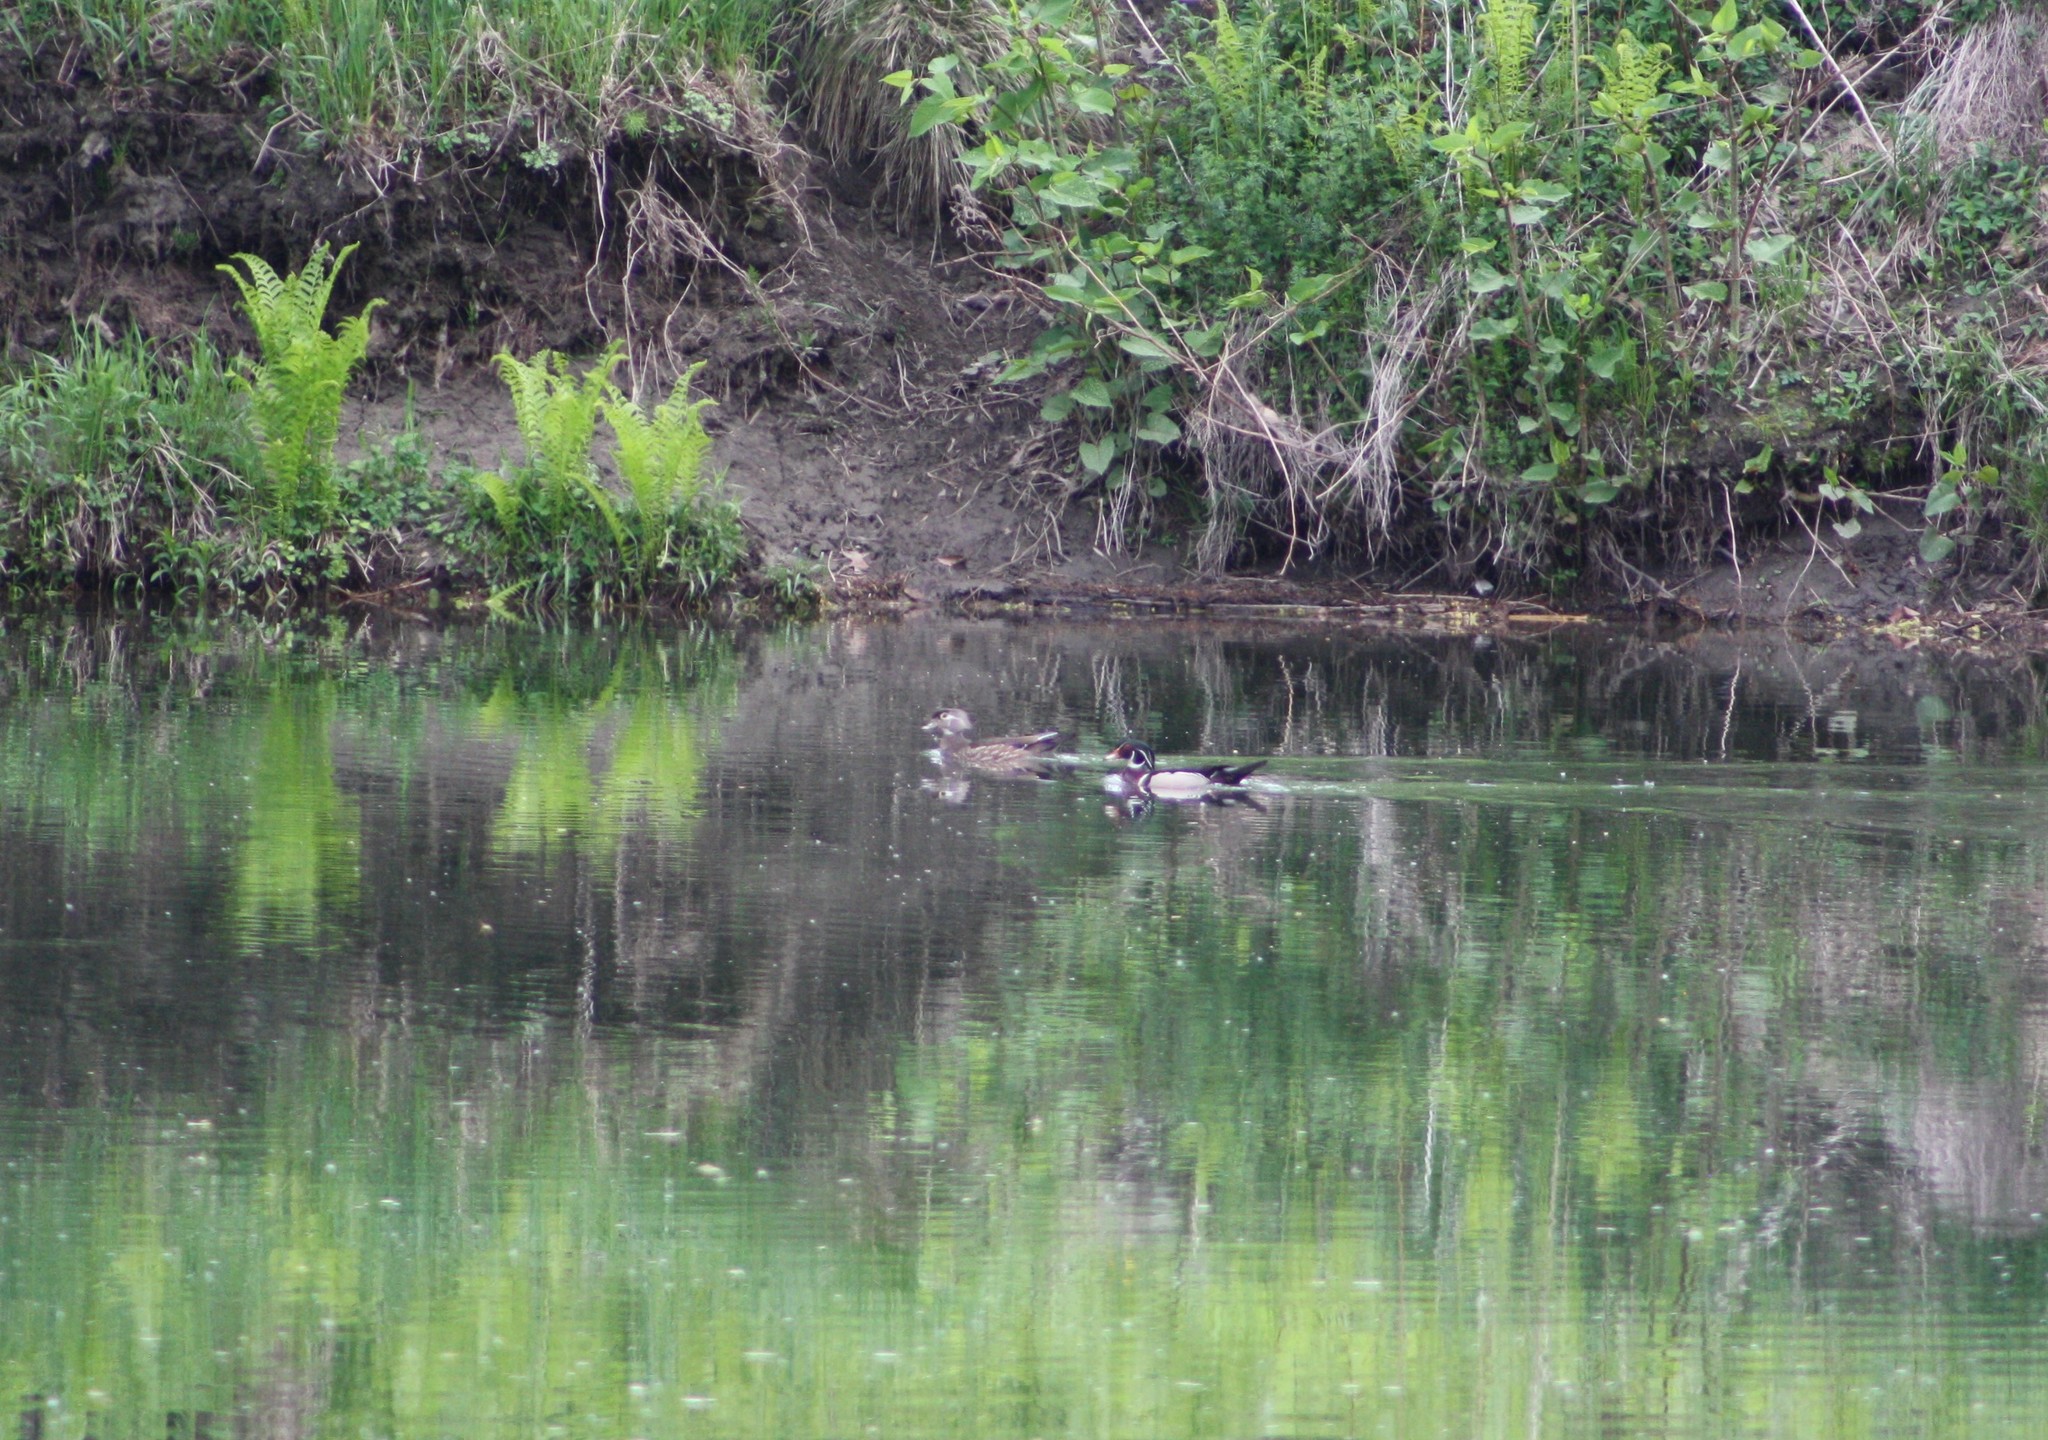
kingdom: Animalia
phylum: Chordata
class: Aves
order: Anseriformes
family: Anatidae
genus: Aix
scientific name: Aix sponsa
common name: Wood duck
